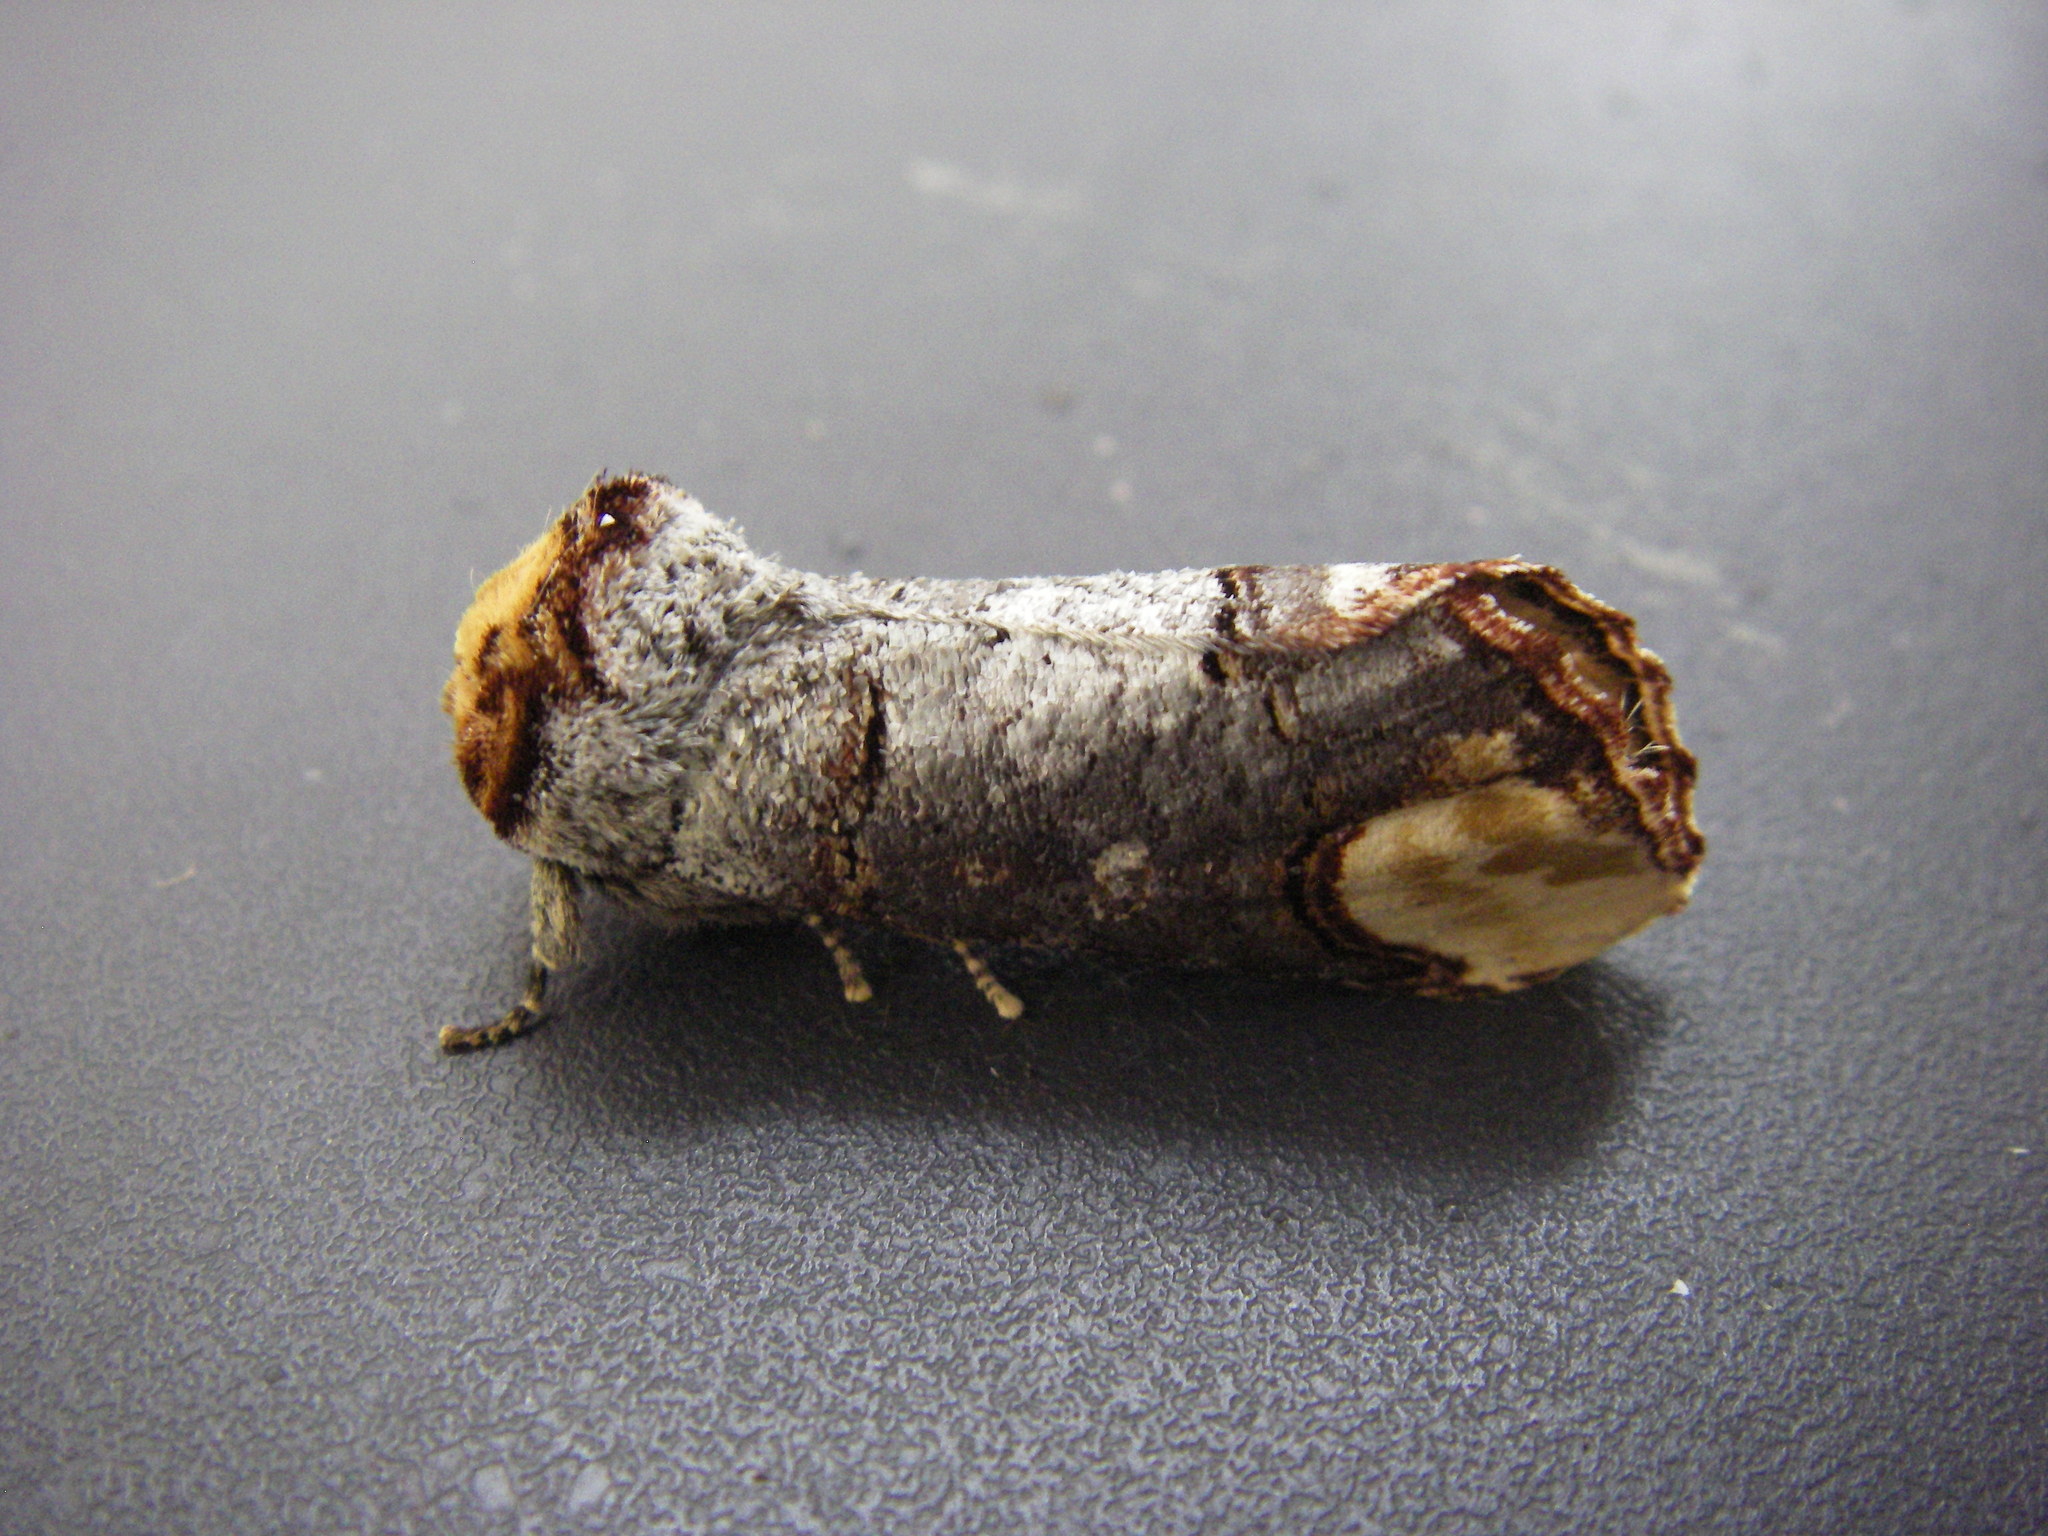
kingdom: Animalia
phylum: Arthropoda
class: Insecta
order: Lepidoptera
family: Notodontidae
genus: Phalera
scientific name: Phalera bucephala
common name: Buff-tip
